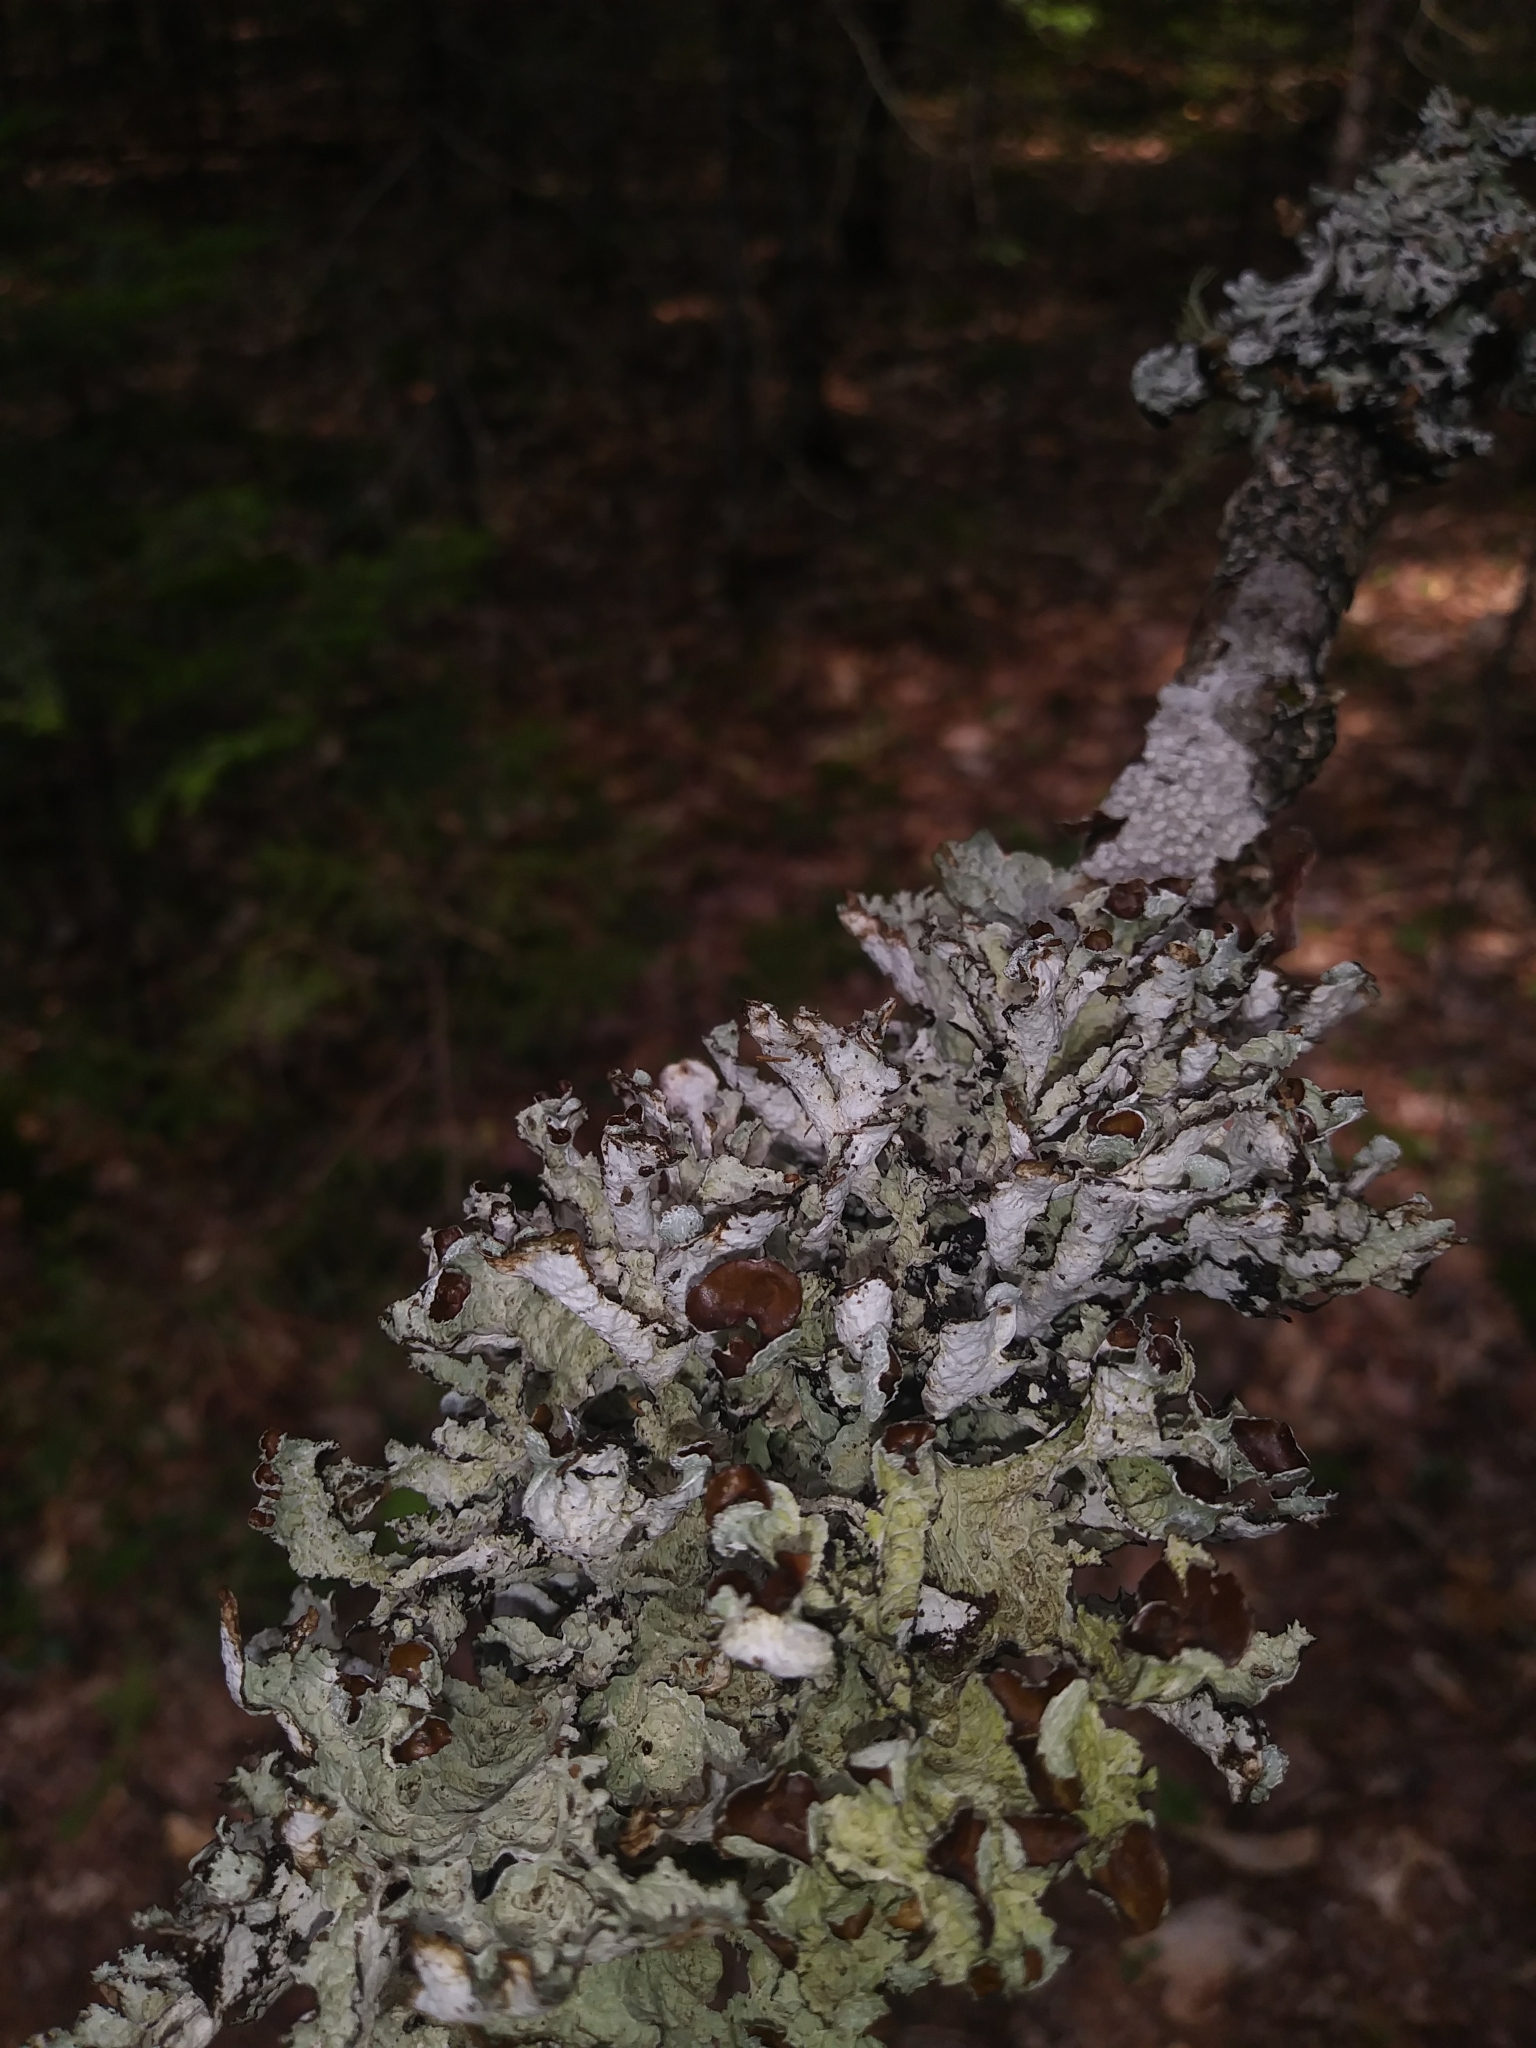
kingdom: Fungi
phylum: Ascomycota
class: Lecanoromycetes
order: Lecanorales
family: Parmeliaceae
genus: Platismatia
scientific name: Platismatia tuckermanii
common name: Crumpled rag lichen
